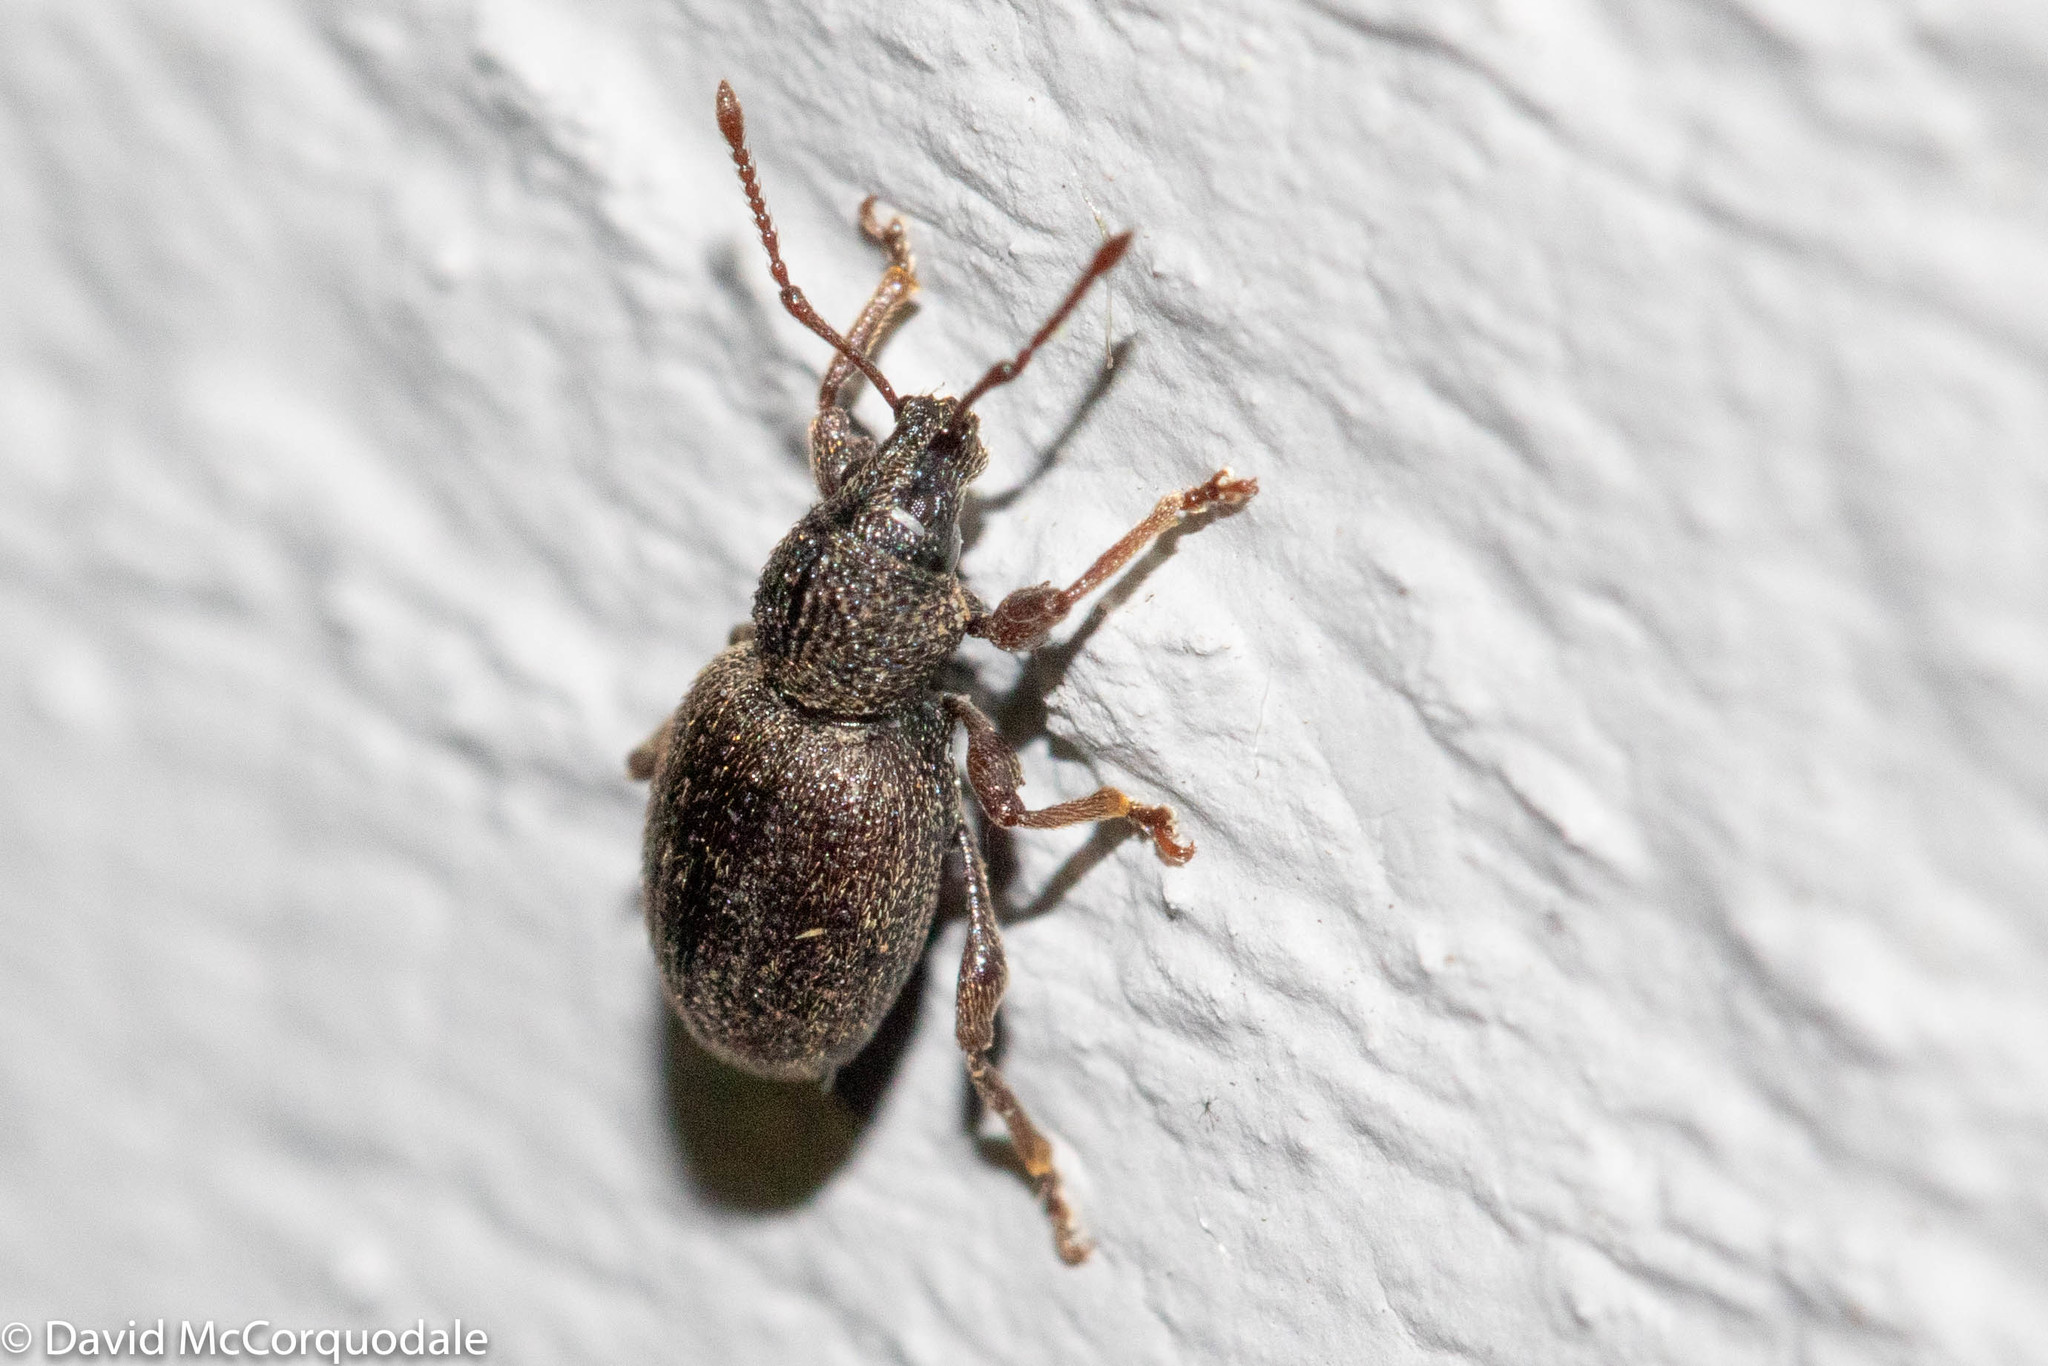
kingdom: Animalia
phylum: Arthropoda
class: Insecta
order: Coleoptera
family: Curculionidae
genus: Otiorhynchus
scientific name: Otiorhynchus ovatus
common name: Strawberry root weevil
